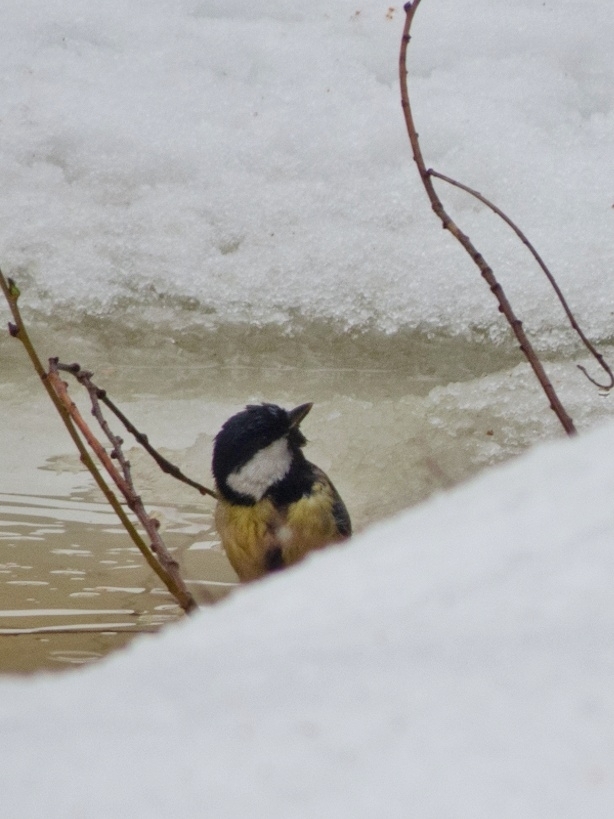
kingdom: Animalia
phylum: Chordata
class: Aves
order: Passeriformes
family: Paridae
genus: Parus
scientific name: Parus major
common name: Great tit
